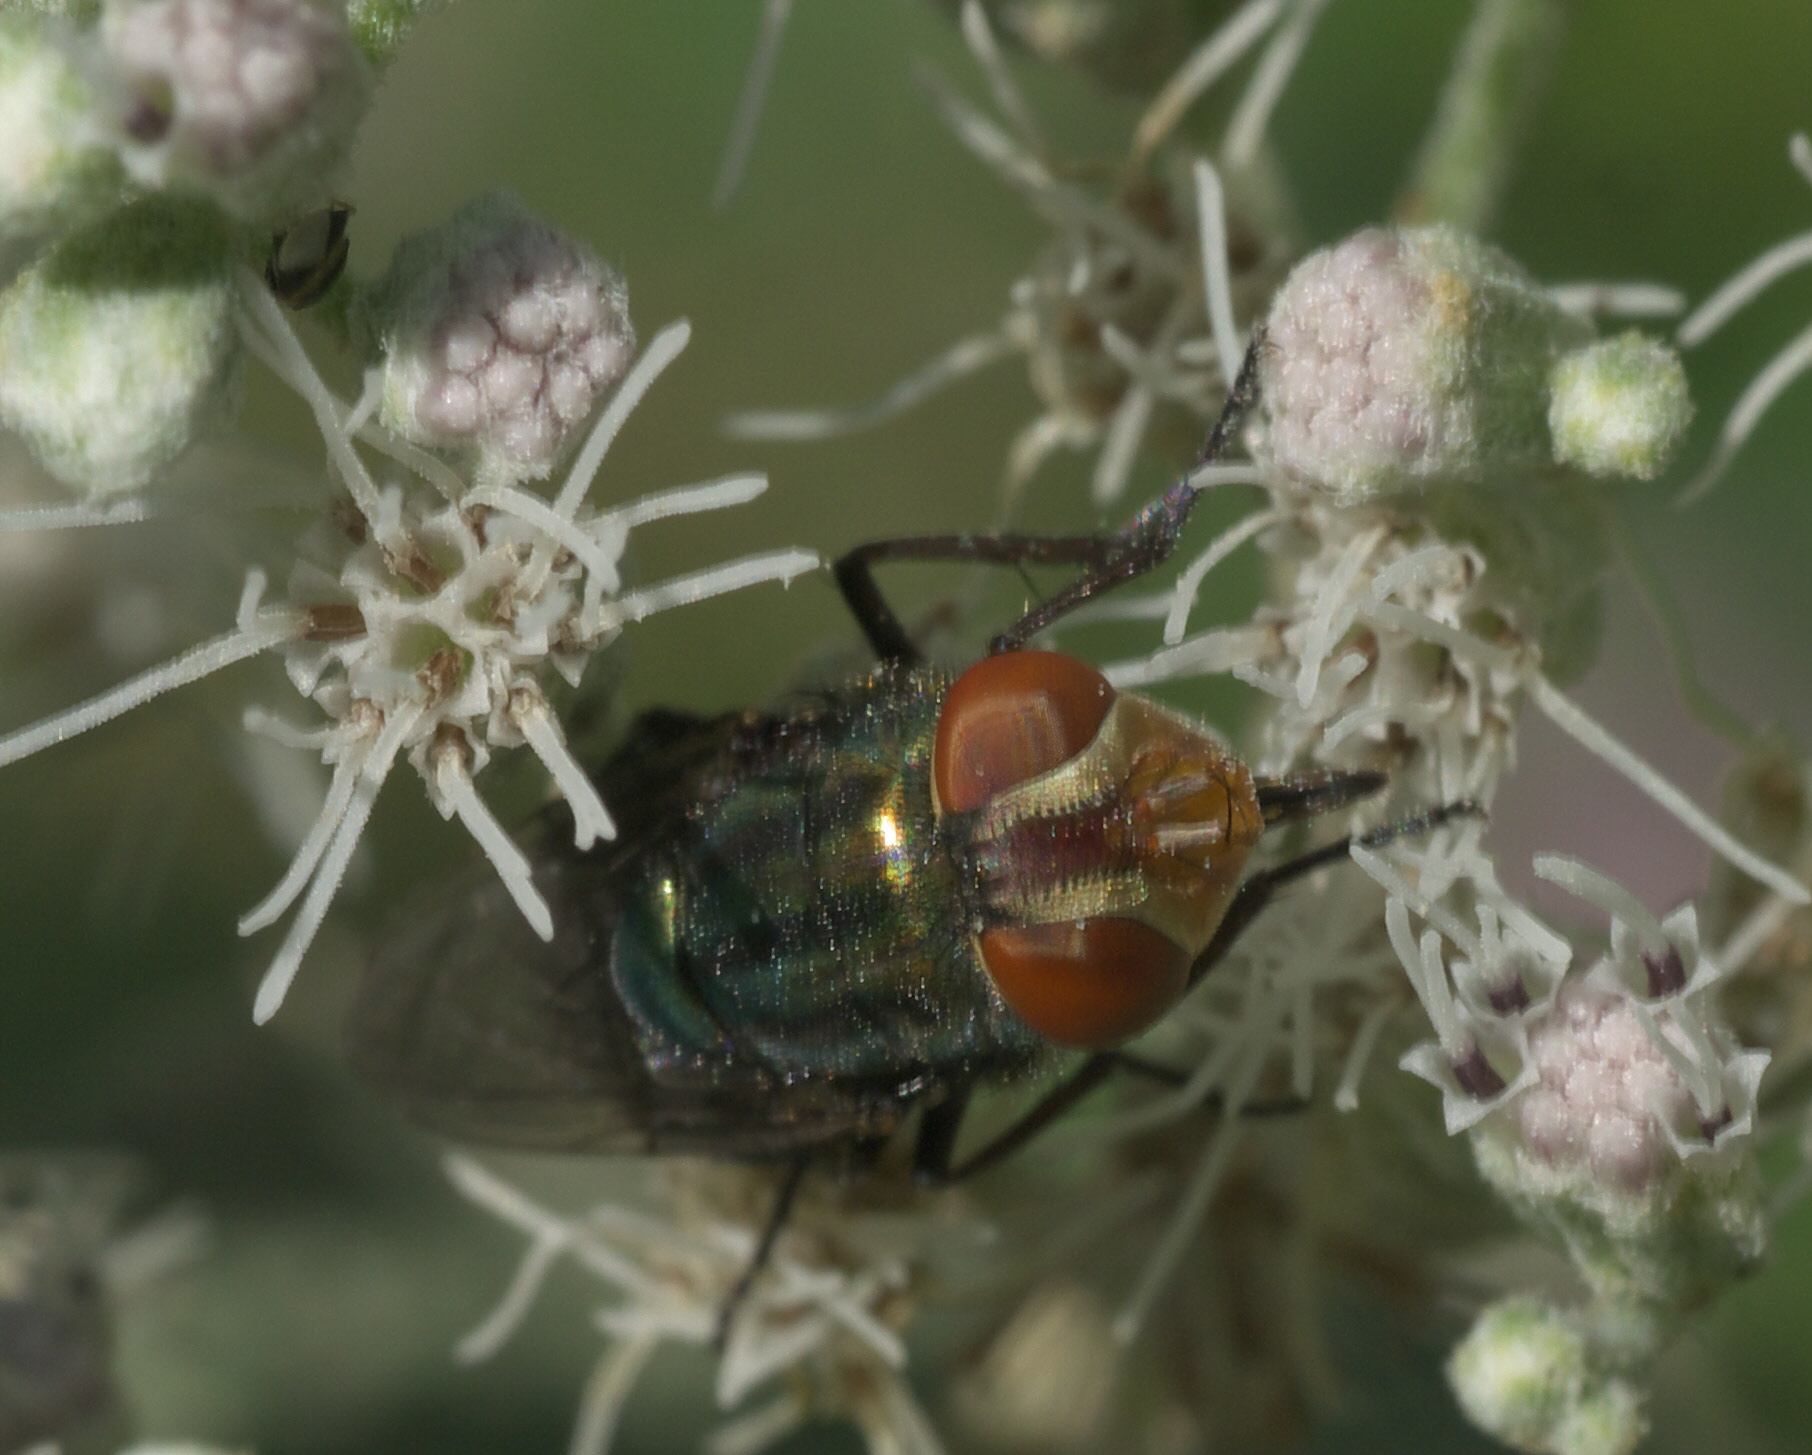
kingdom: Animalia
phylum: Arthropoda
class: Insecta
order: Diptera
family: Calliphoridae
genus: Cochliomyia
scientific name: Cochliomyia macellaria
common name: Secondary screwworm
